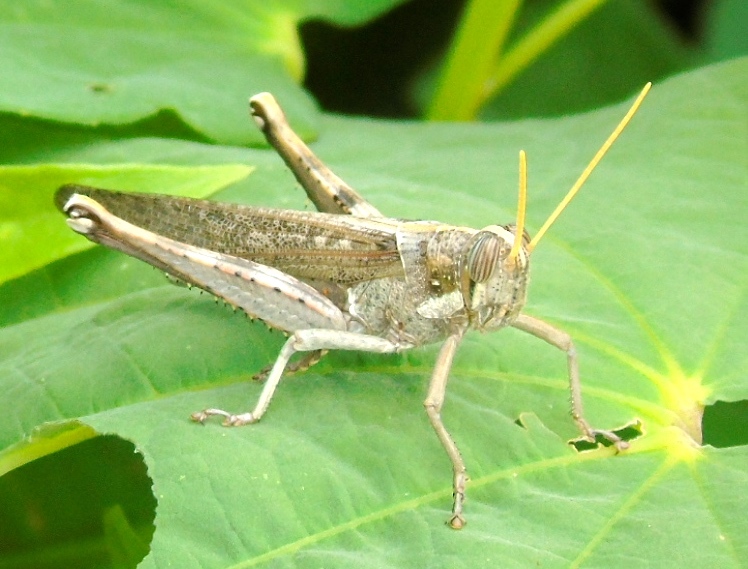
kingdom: Animalia
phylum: Arthropoda
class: Insecta
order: Orthoptera
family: Acrididae
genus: Schistocerca
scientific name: Schistocerca nitens
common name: Vagrant grasshopper
